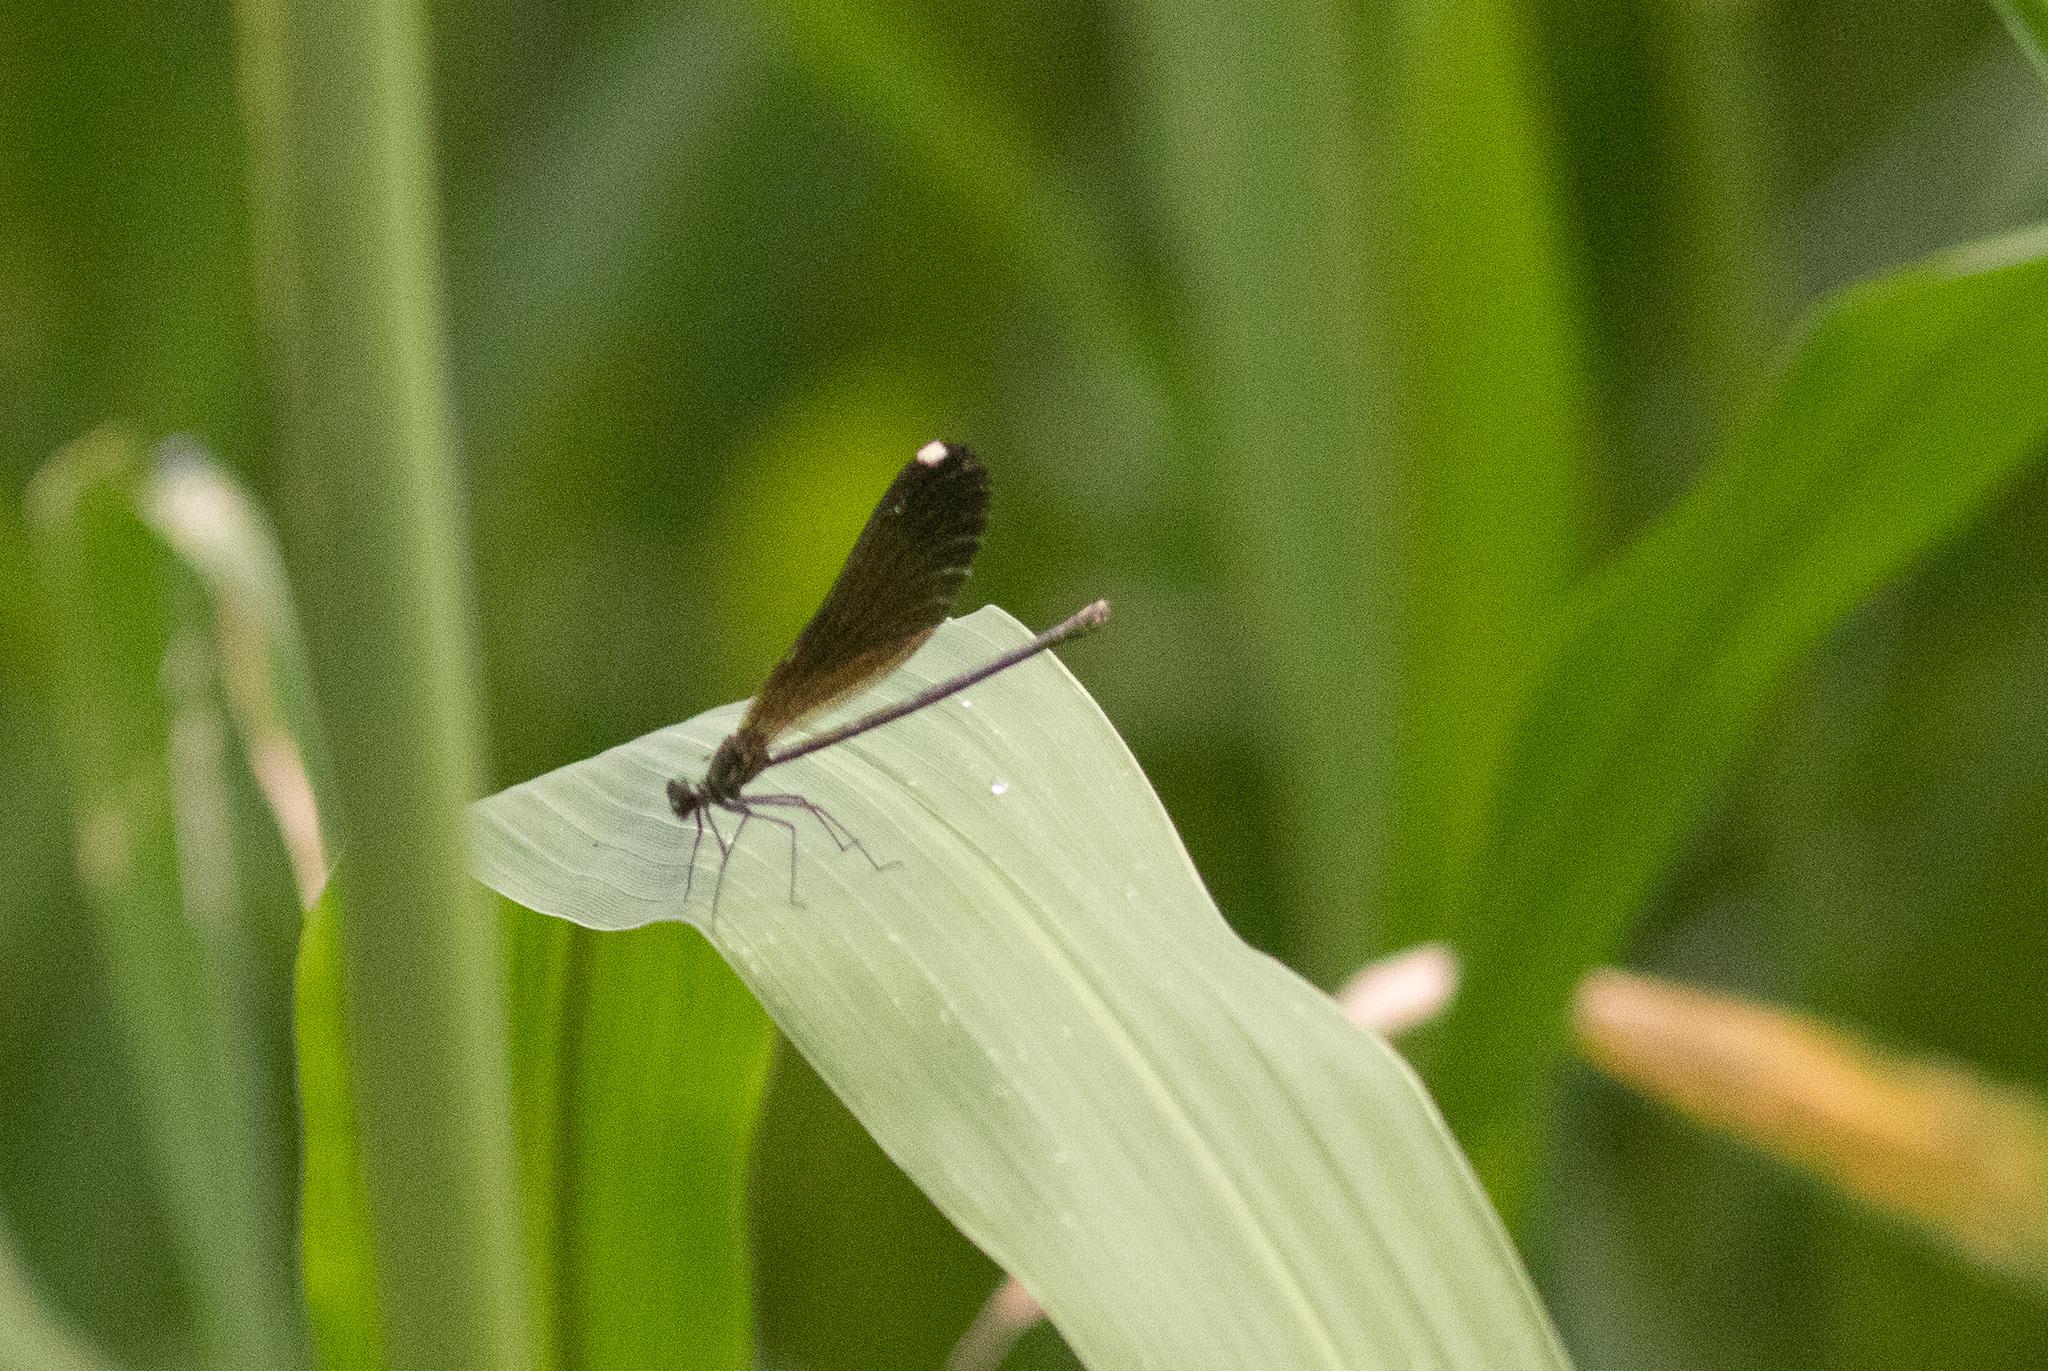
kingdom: Animalia
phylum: Arthropoda
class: Insecta
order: Odonata
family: Calopterygidae
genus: Calopteryx
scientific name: Calopteryx maculata
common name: Ebony jewelwing
